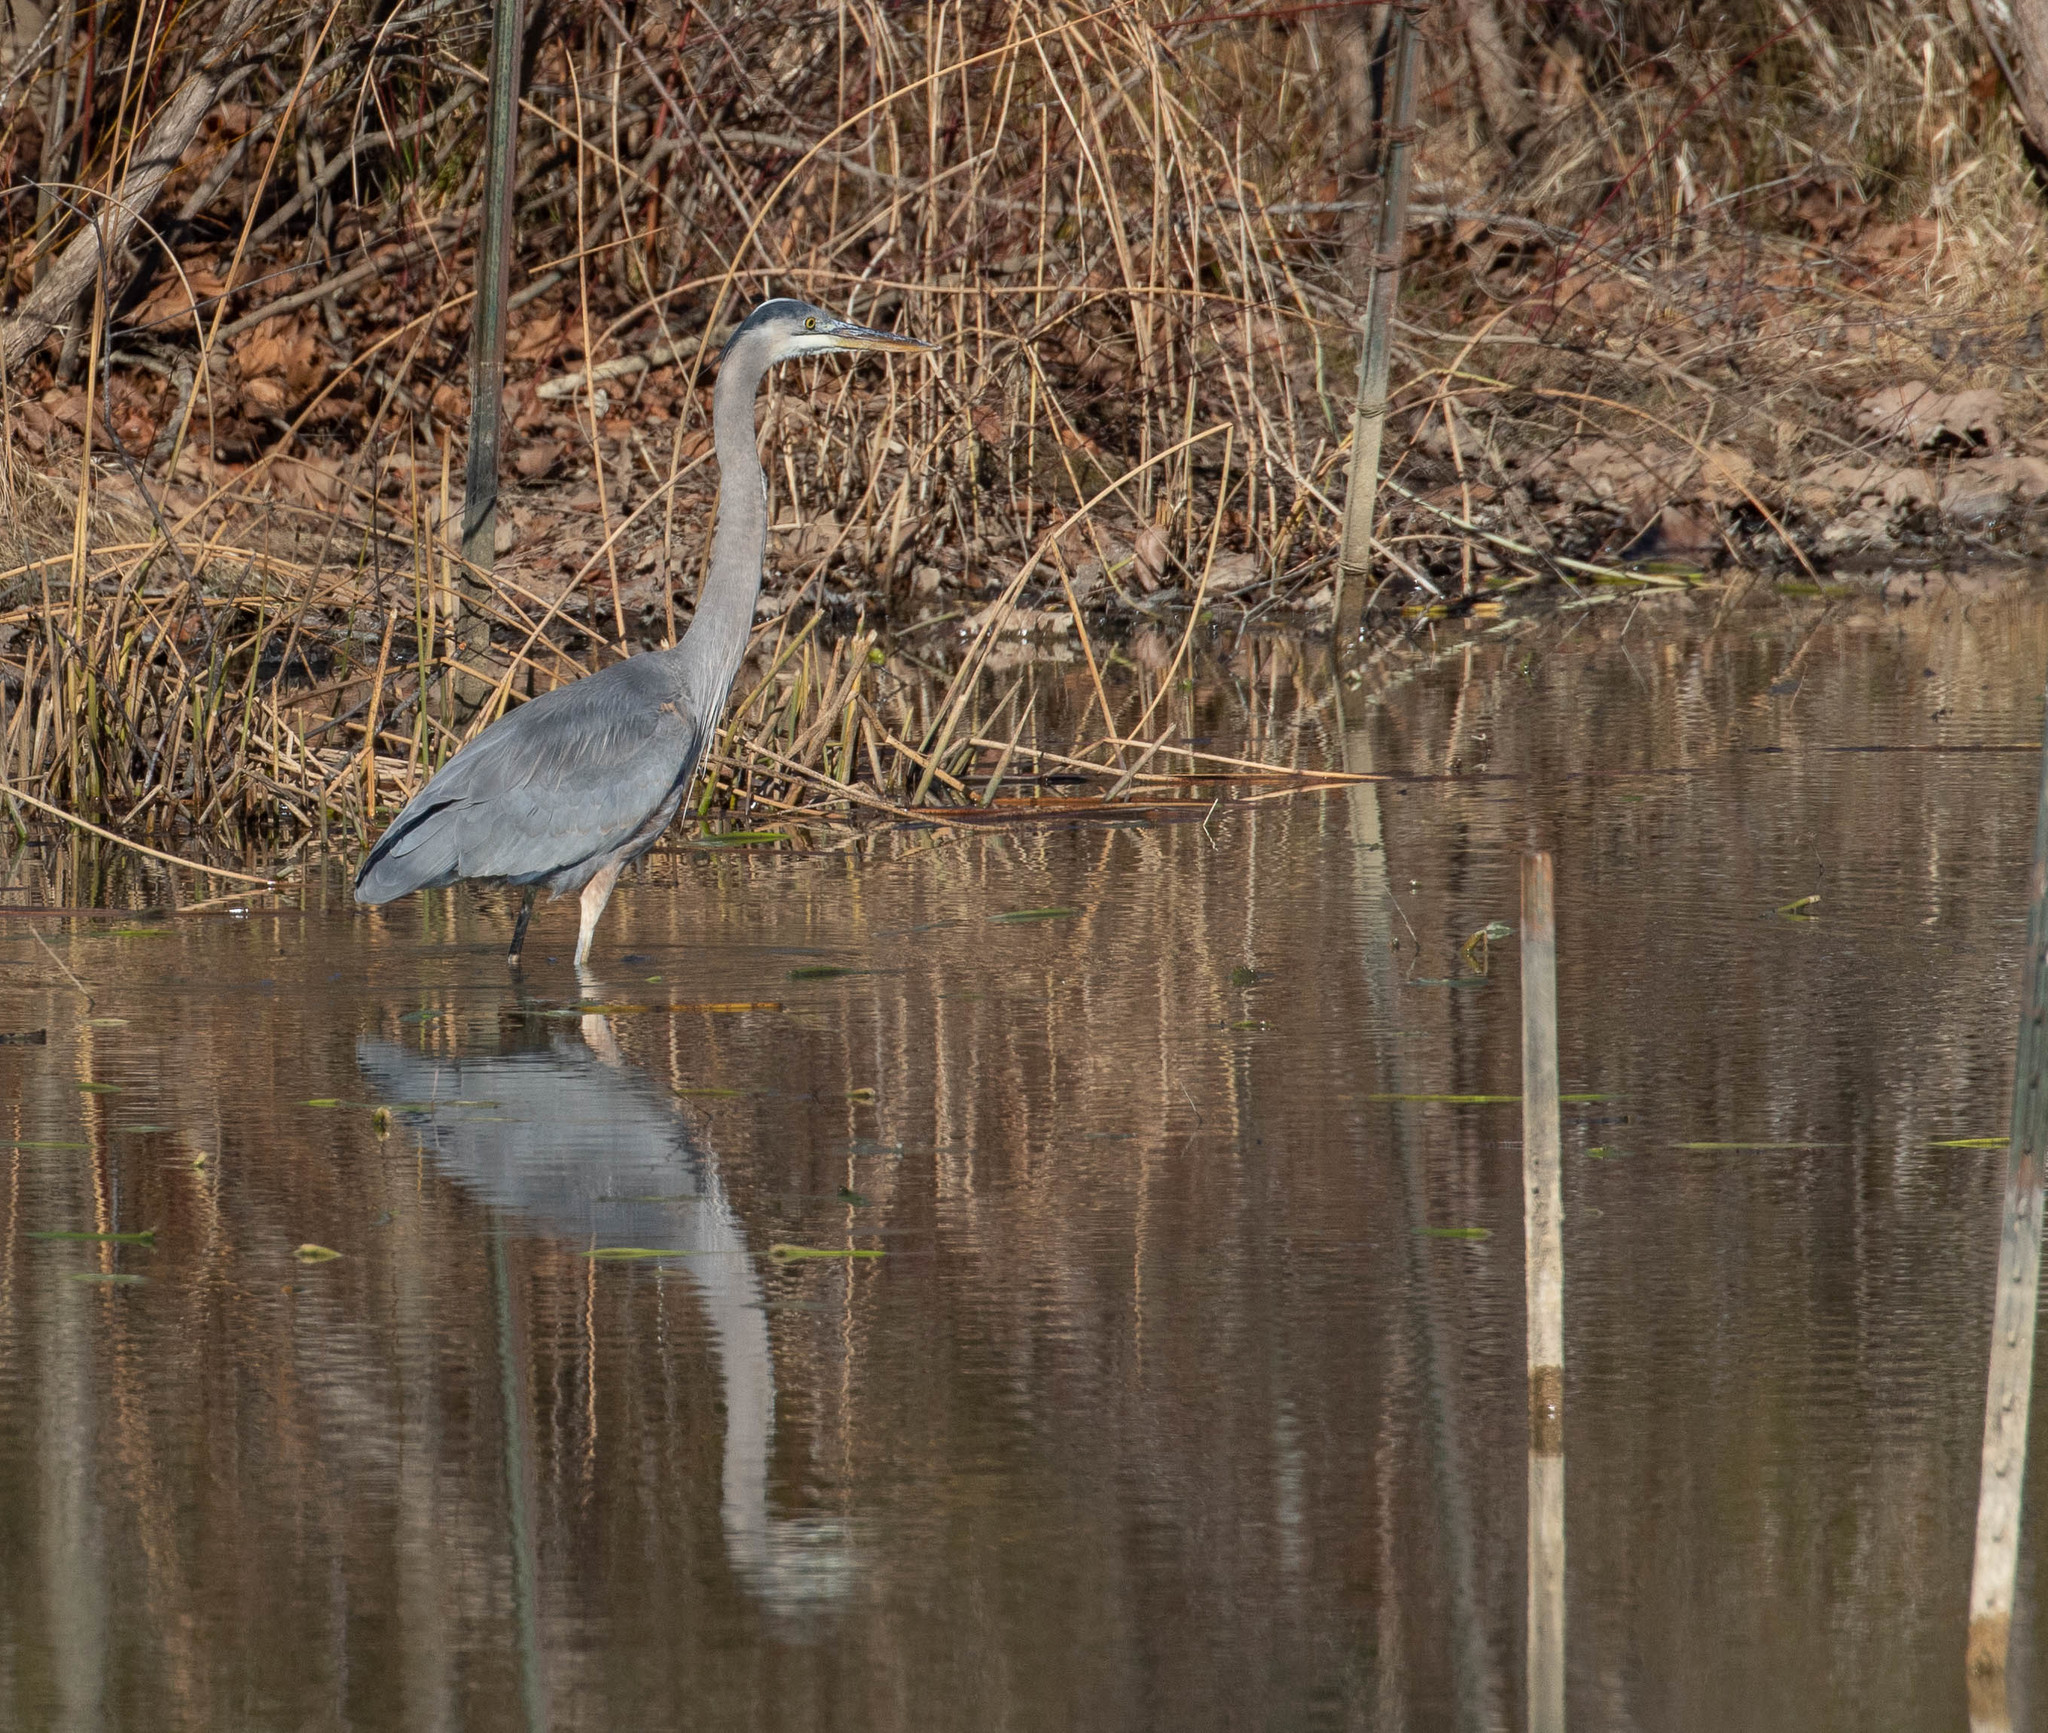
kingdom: Animalia
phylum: Chordata
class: Aves
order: Pelecaniformes
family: Ardeidae
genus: Ardea
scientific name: Ardea herodias
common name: Great blue heron
